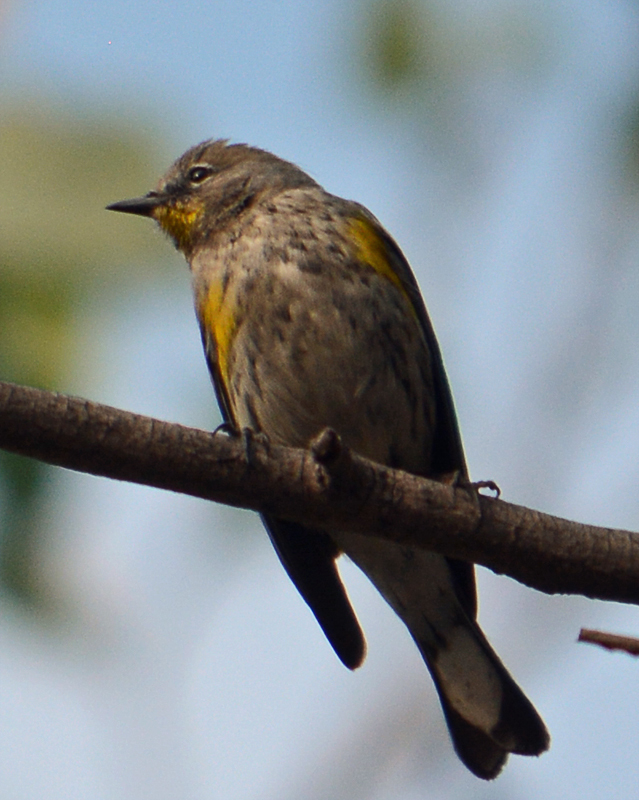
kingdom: Animalia
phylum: Chordata
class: Aves
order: Passeriformes
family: Parulidae
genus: Setophaga
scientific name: Setophaga auduboni
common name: Audubon's warbler
